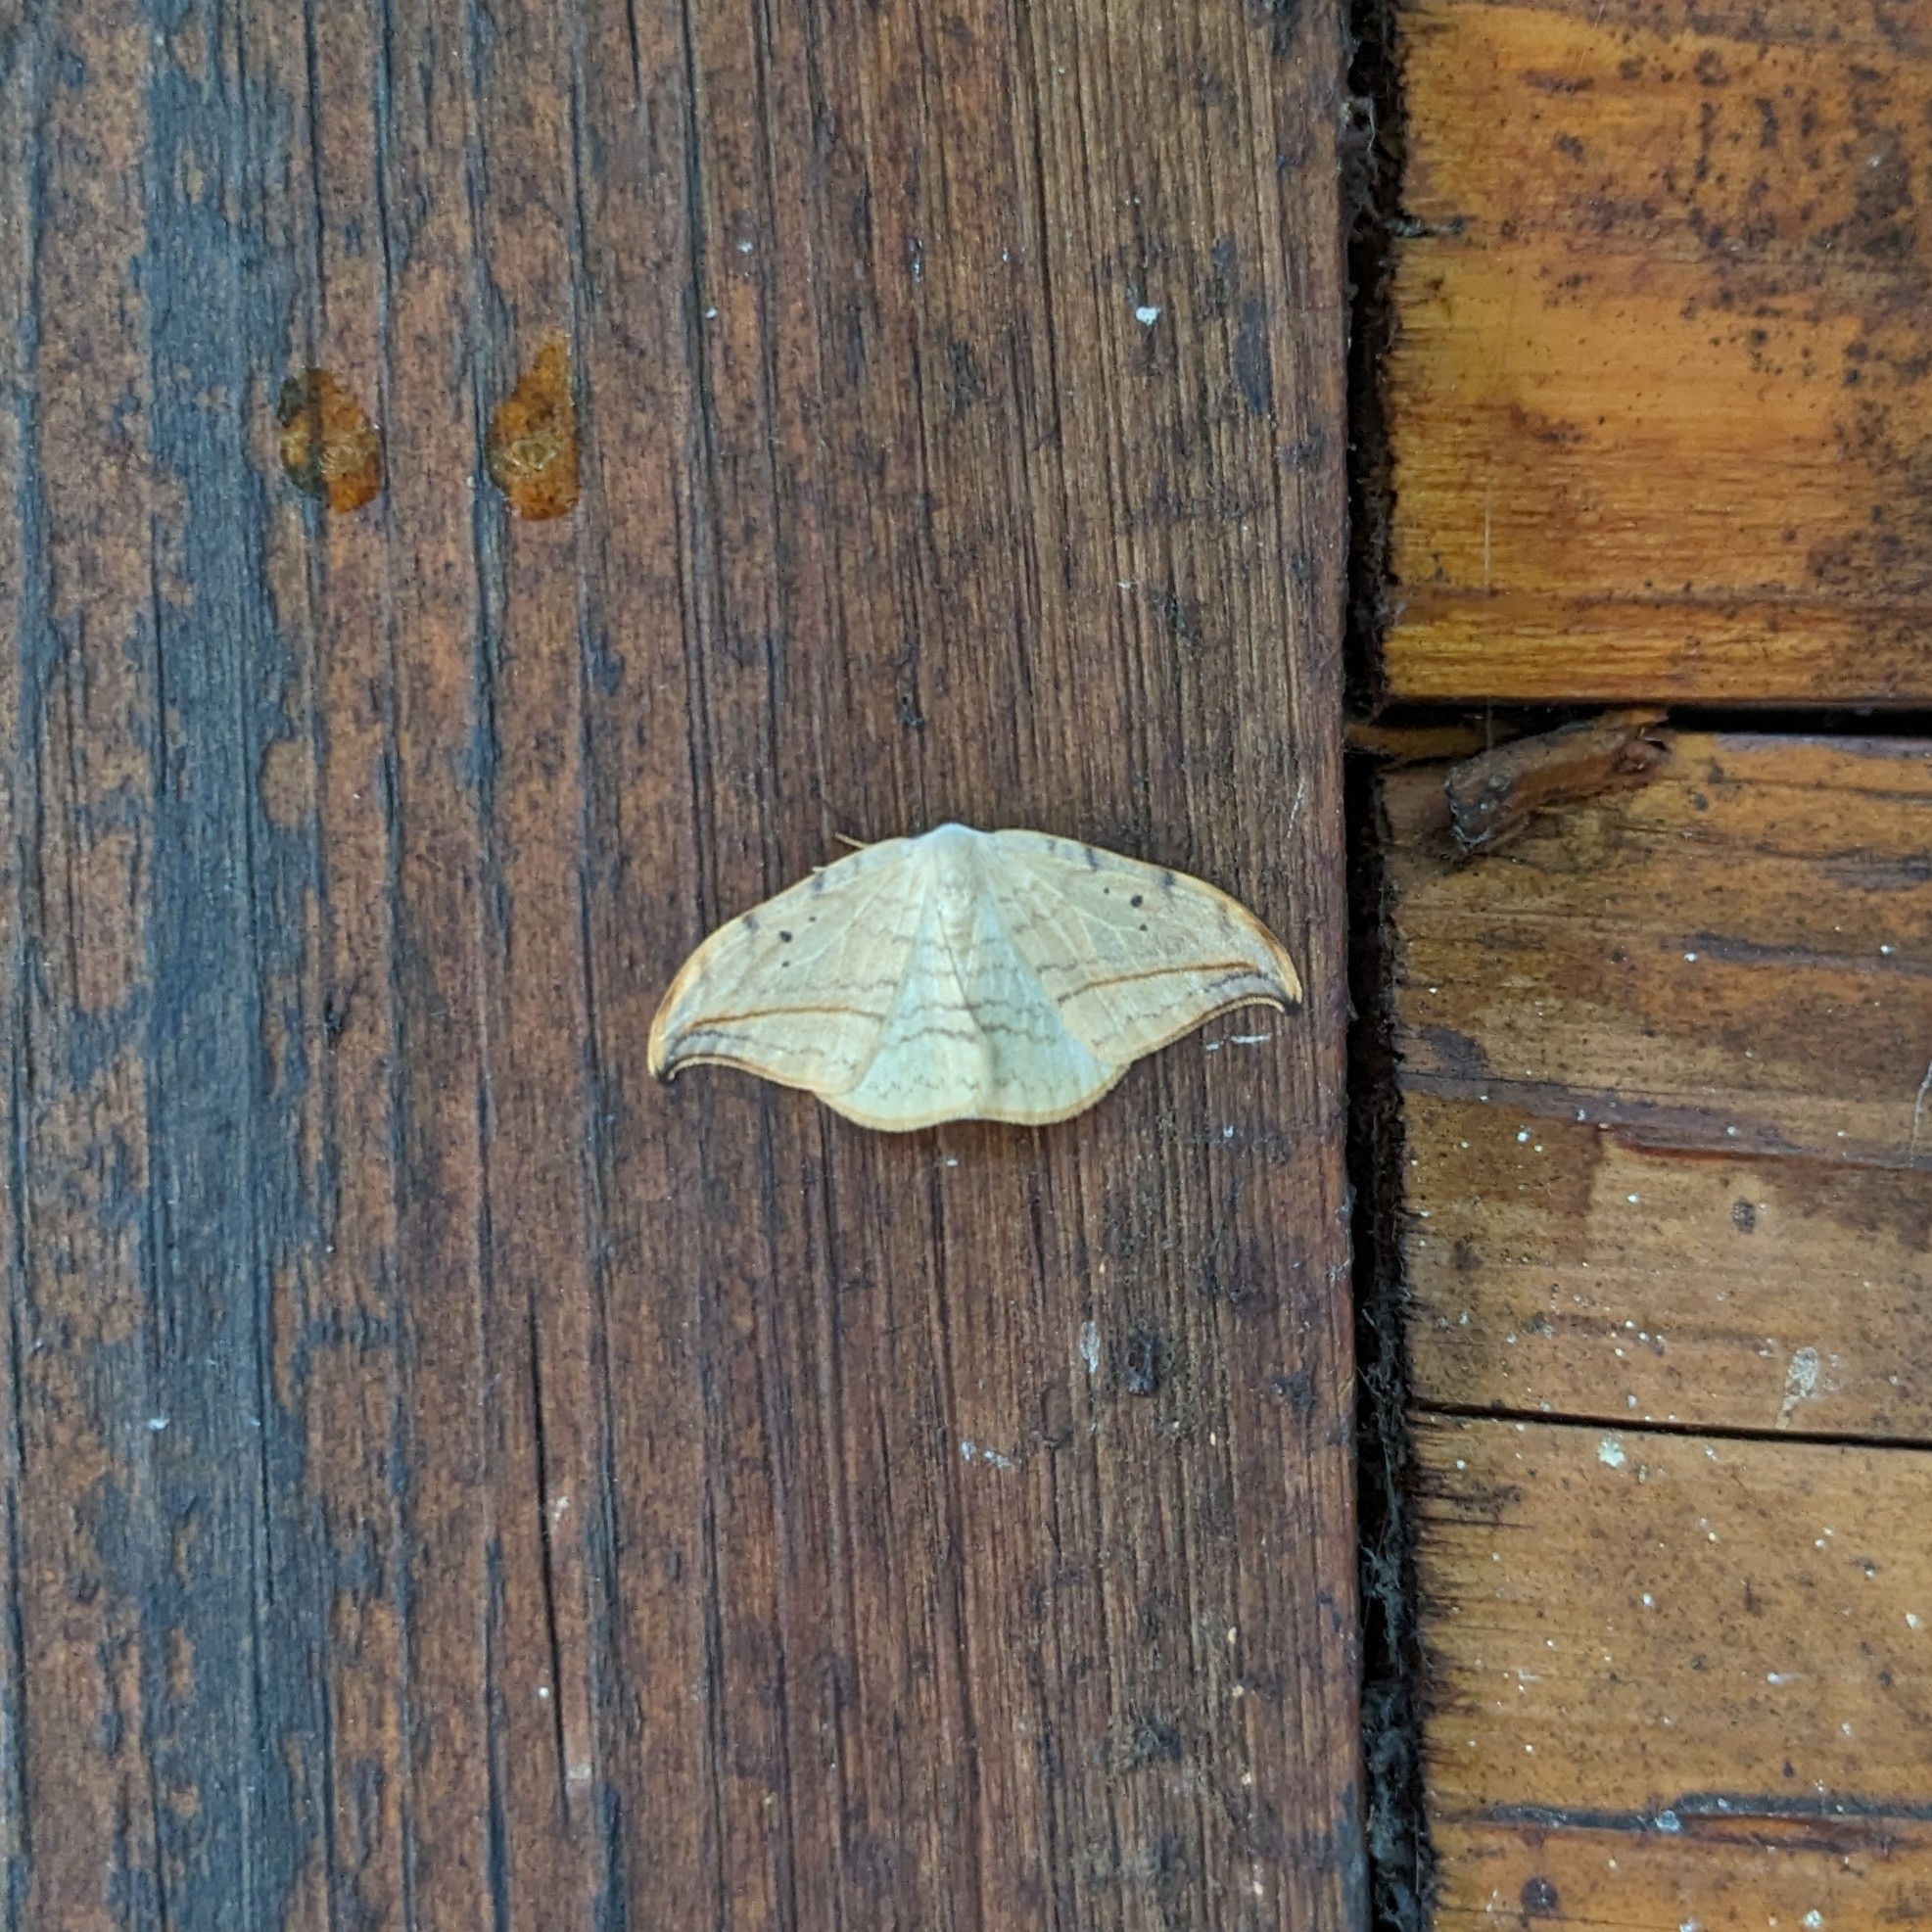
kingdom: Animalia
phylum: Arthropoda
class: Insecta
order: Lepidoptera
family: Drepanidae
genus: Drepana
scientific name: Drepana arcuata
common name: Arched hooktip moth
